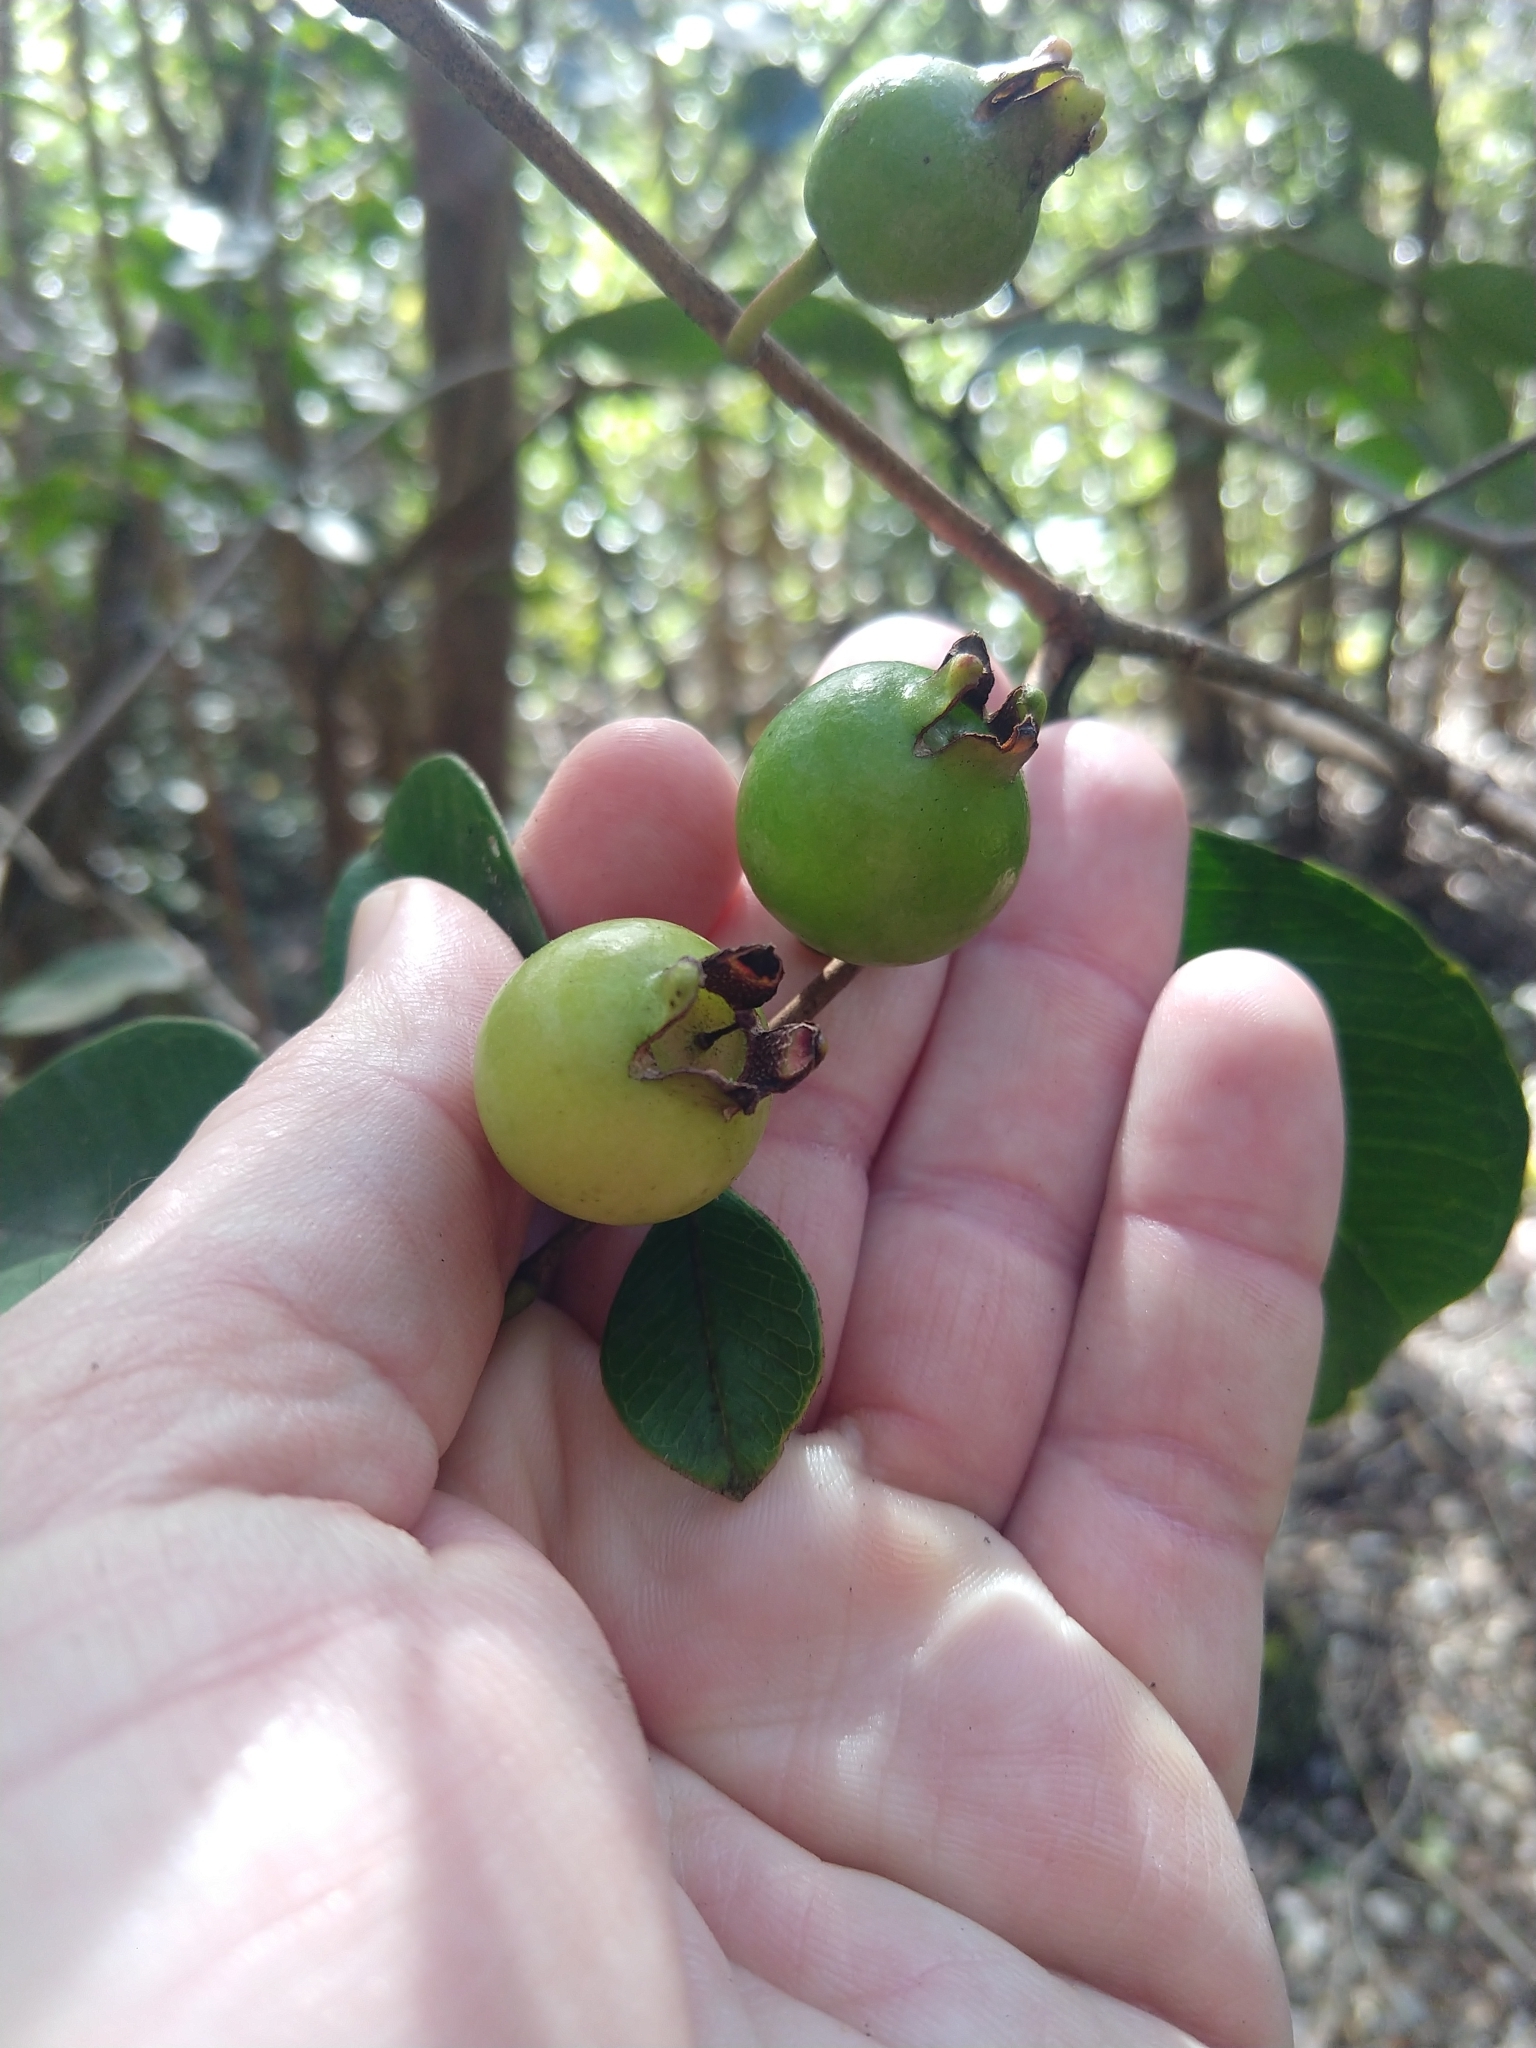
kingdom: Plantae
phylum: Tracheophyta
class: Magnoliopsida
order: Myrtales
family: Myrtaceae
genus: Psidium
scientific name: Psidium cattleianum
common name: Strawberry guava
